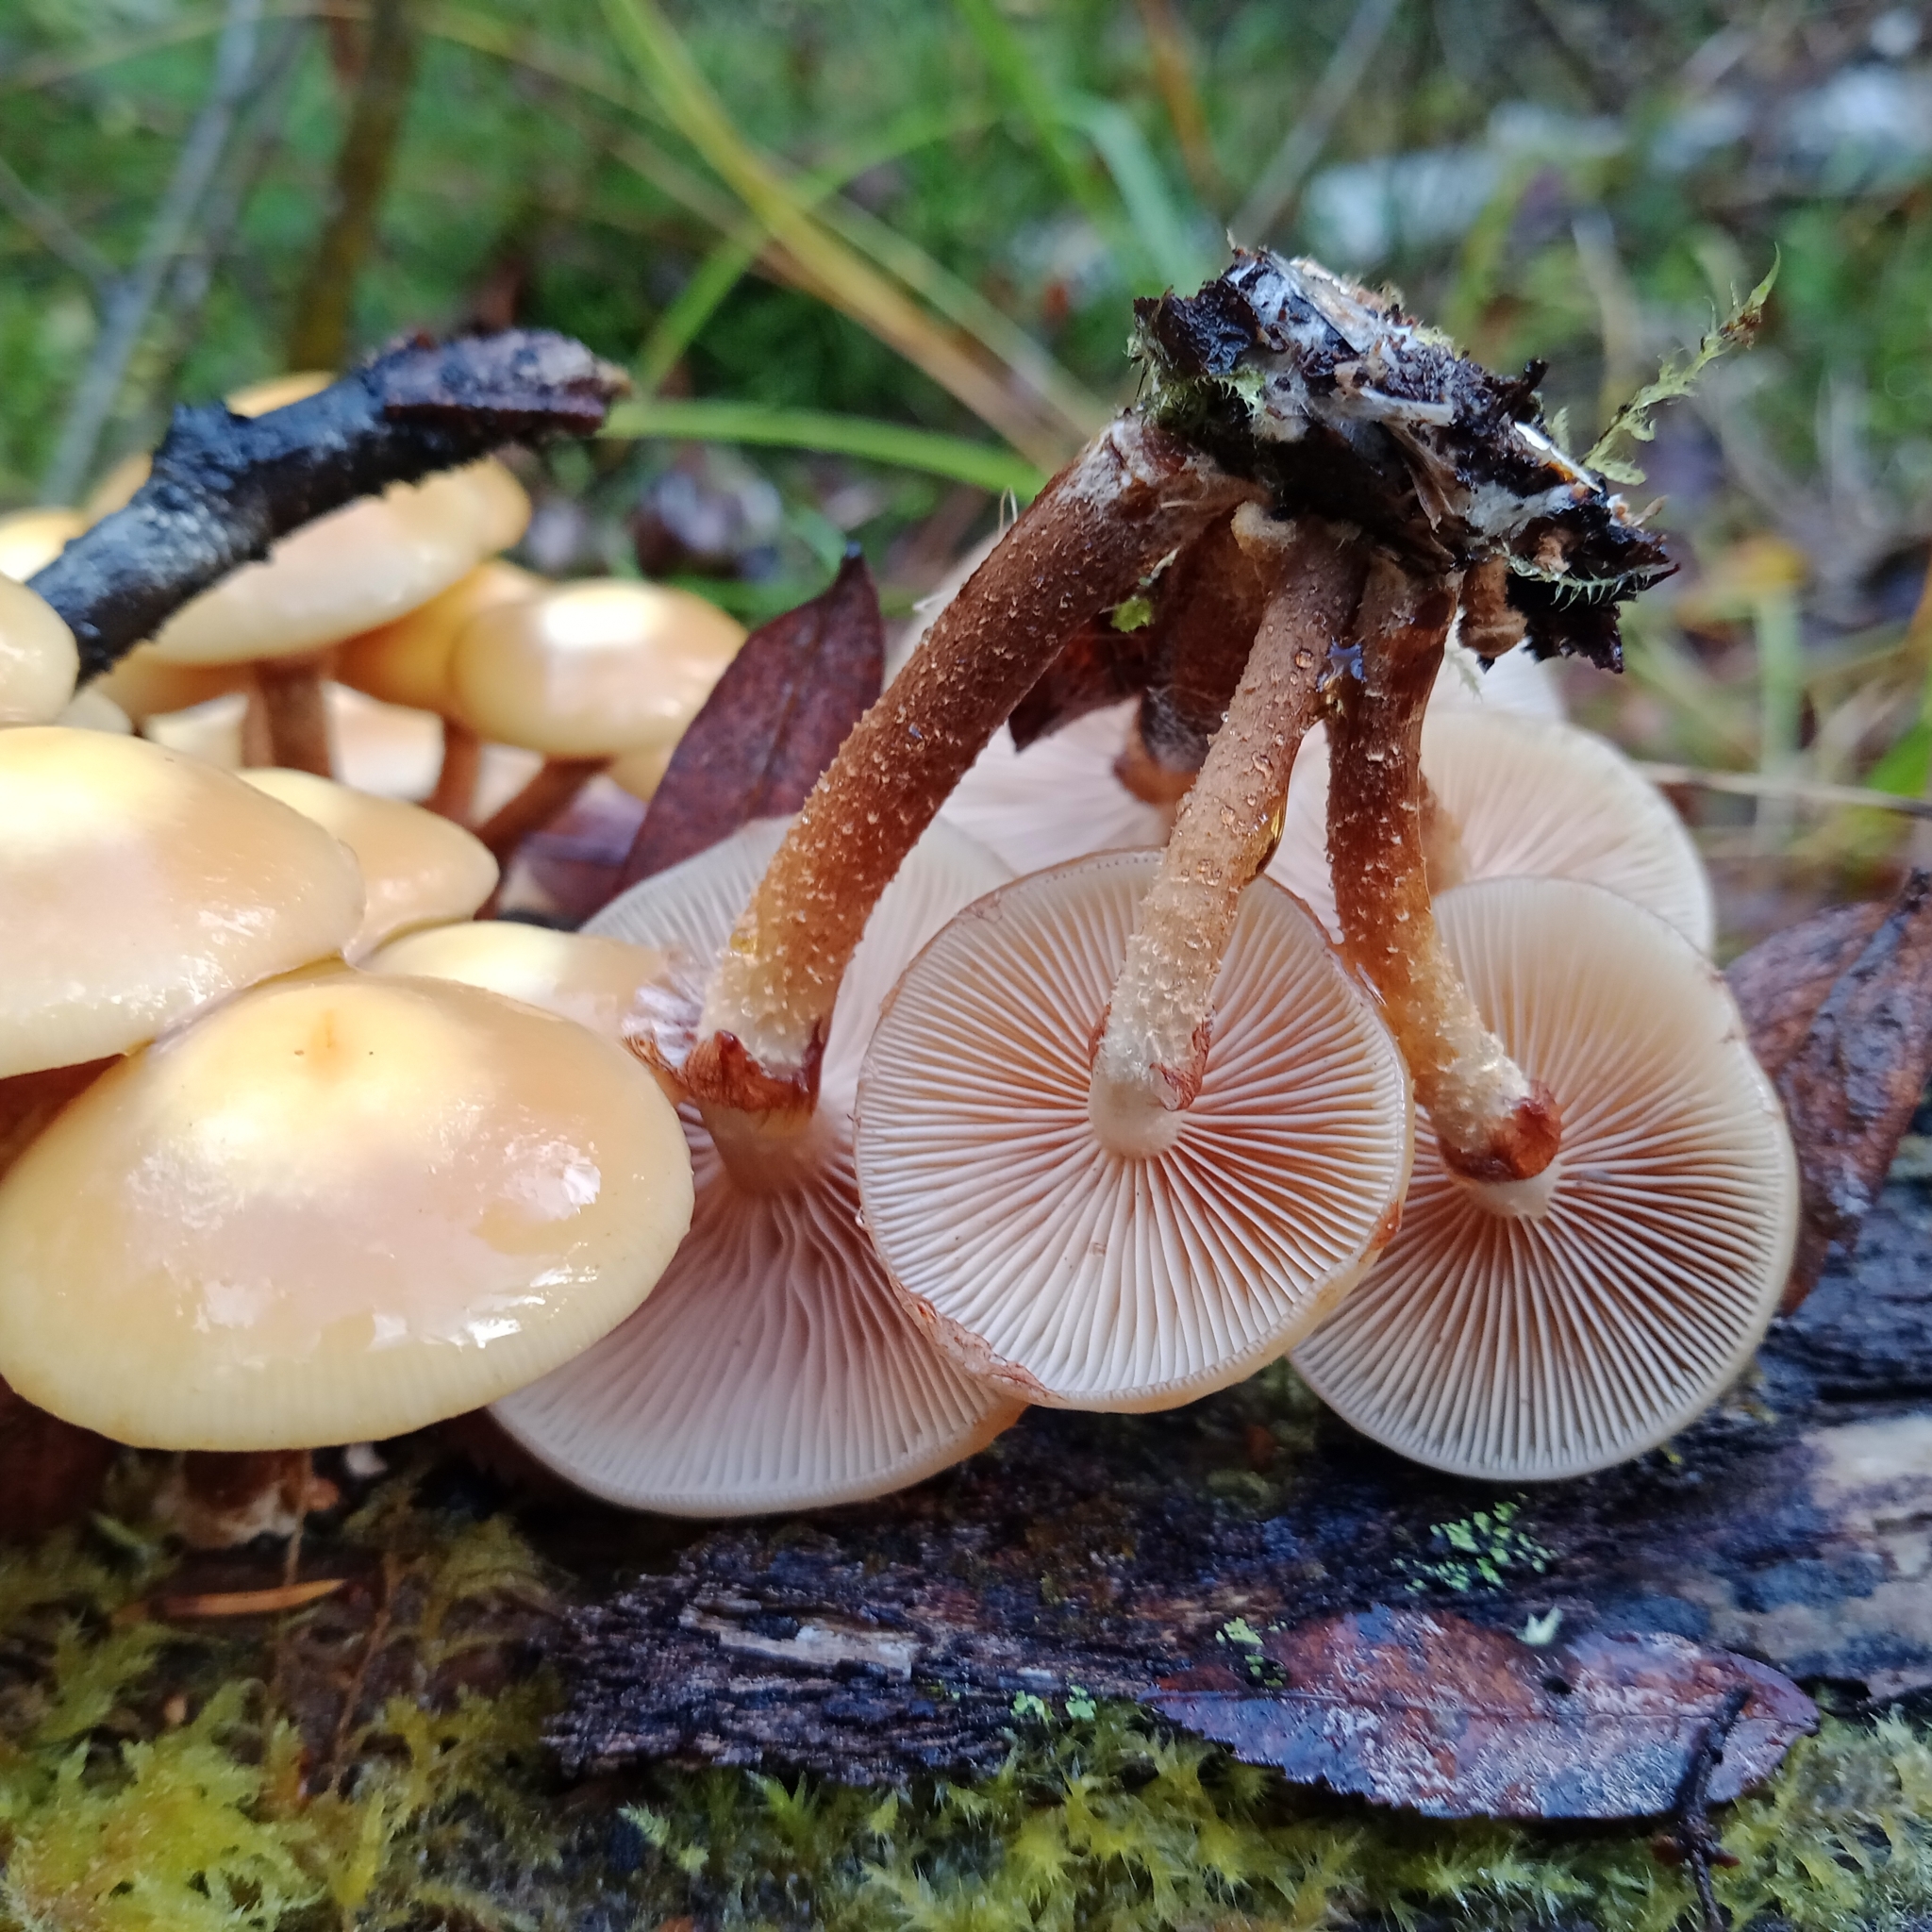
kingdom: Fungi
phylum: Basidiomycota
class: Agaricomycetes
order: Agaricales
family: Strophariaceae
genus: Kuehneromyces
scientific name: Kuehneromyces mutabilis
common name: Sheathed woodtuft
